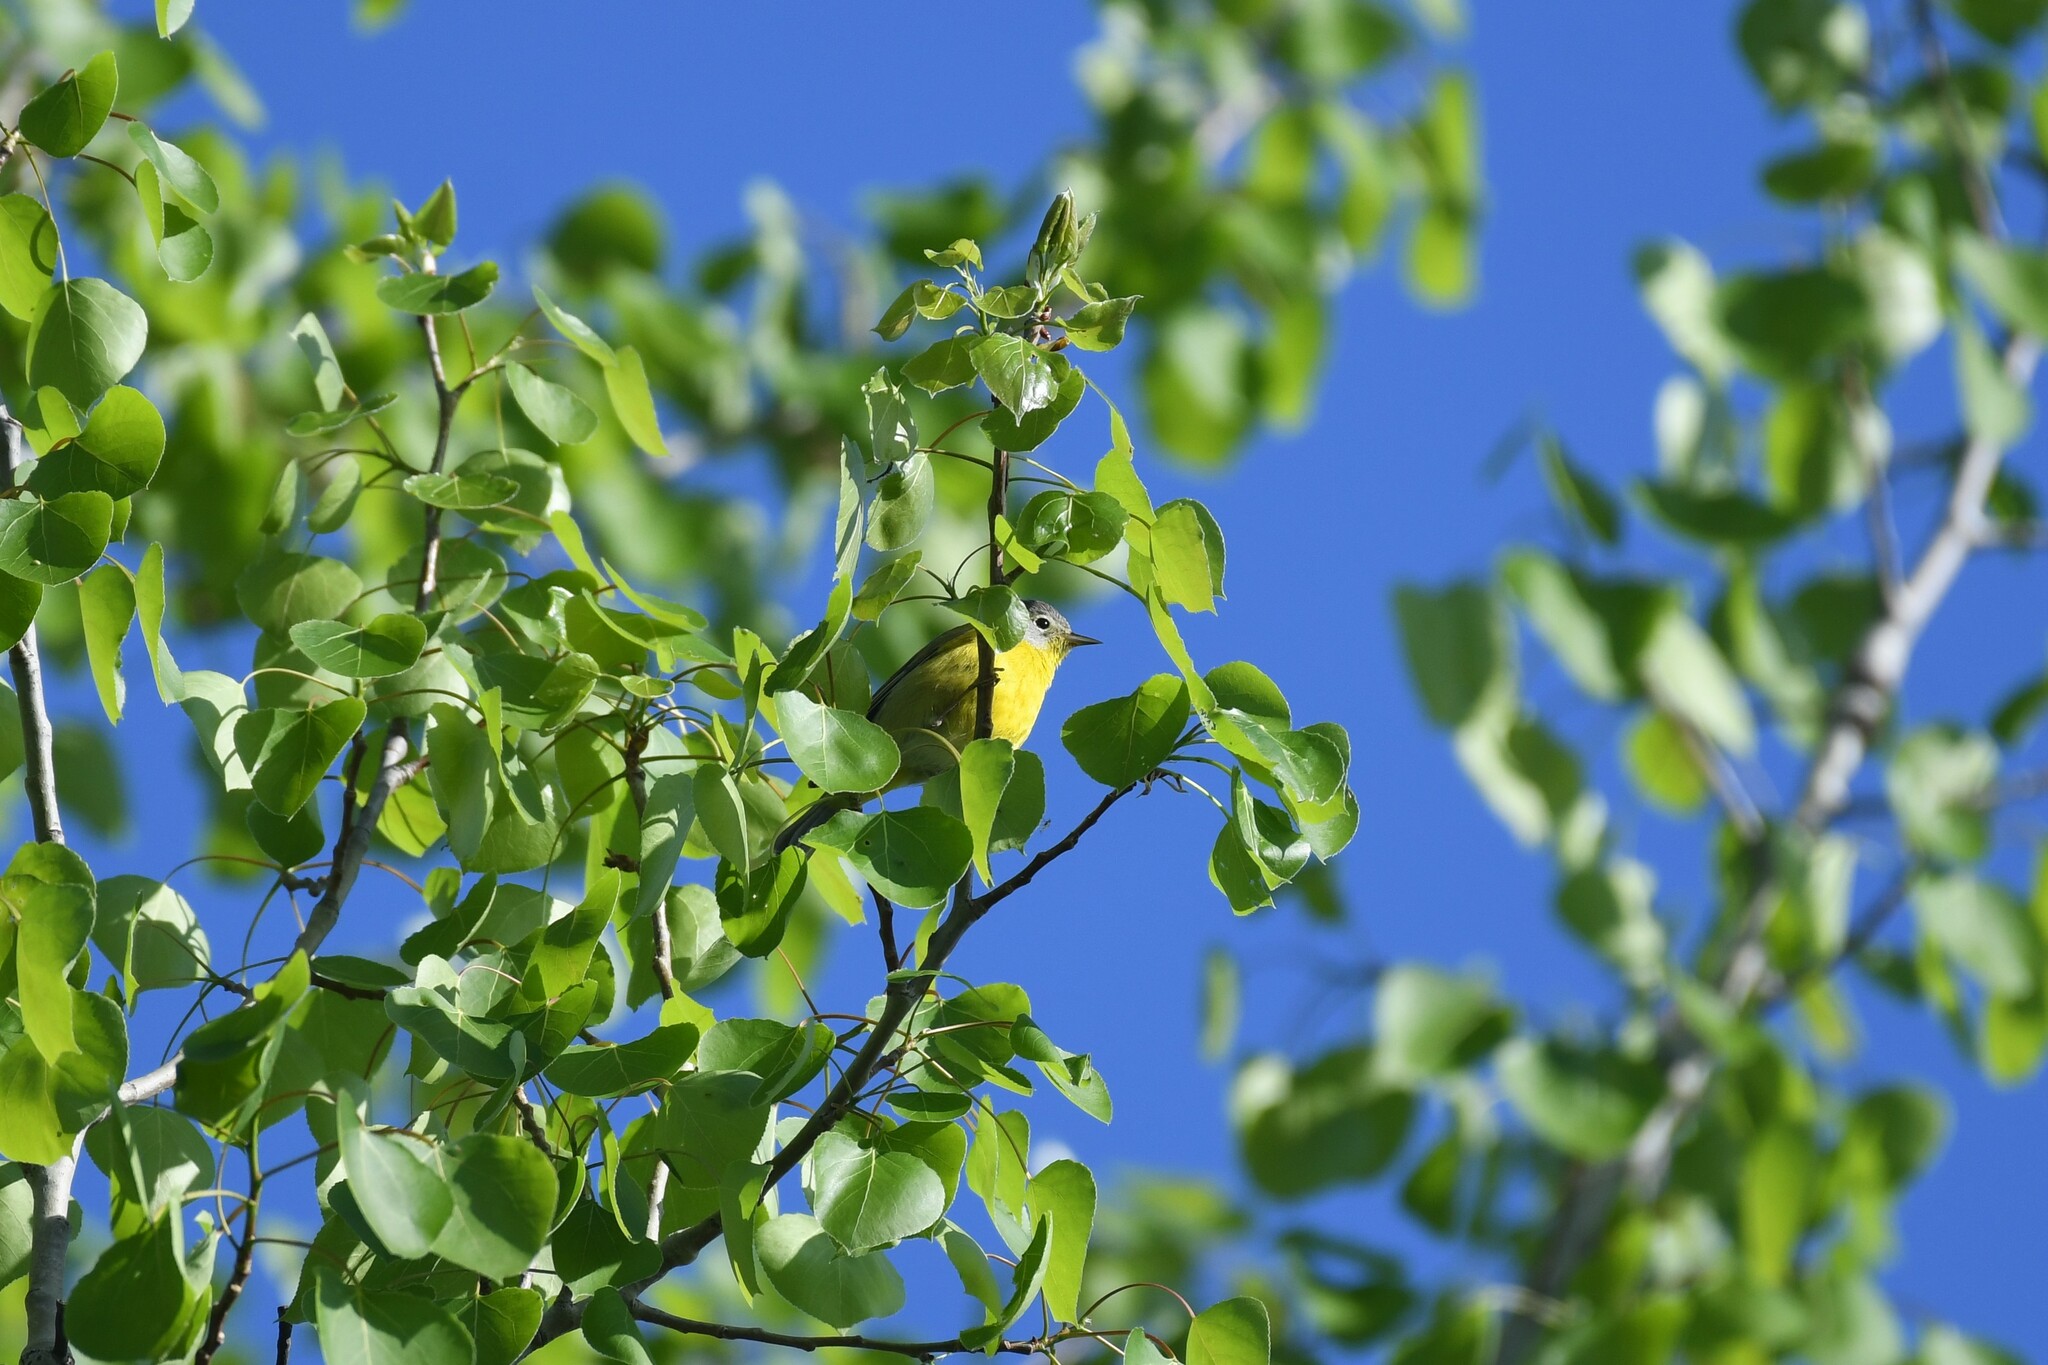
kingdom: Animalia
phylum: Chordata
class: Aves
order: Passeriformes
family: Parulidae
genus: Leiothlypis
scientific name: Leiothlypis ruficapilla
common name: Nashville warbler
